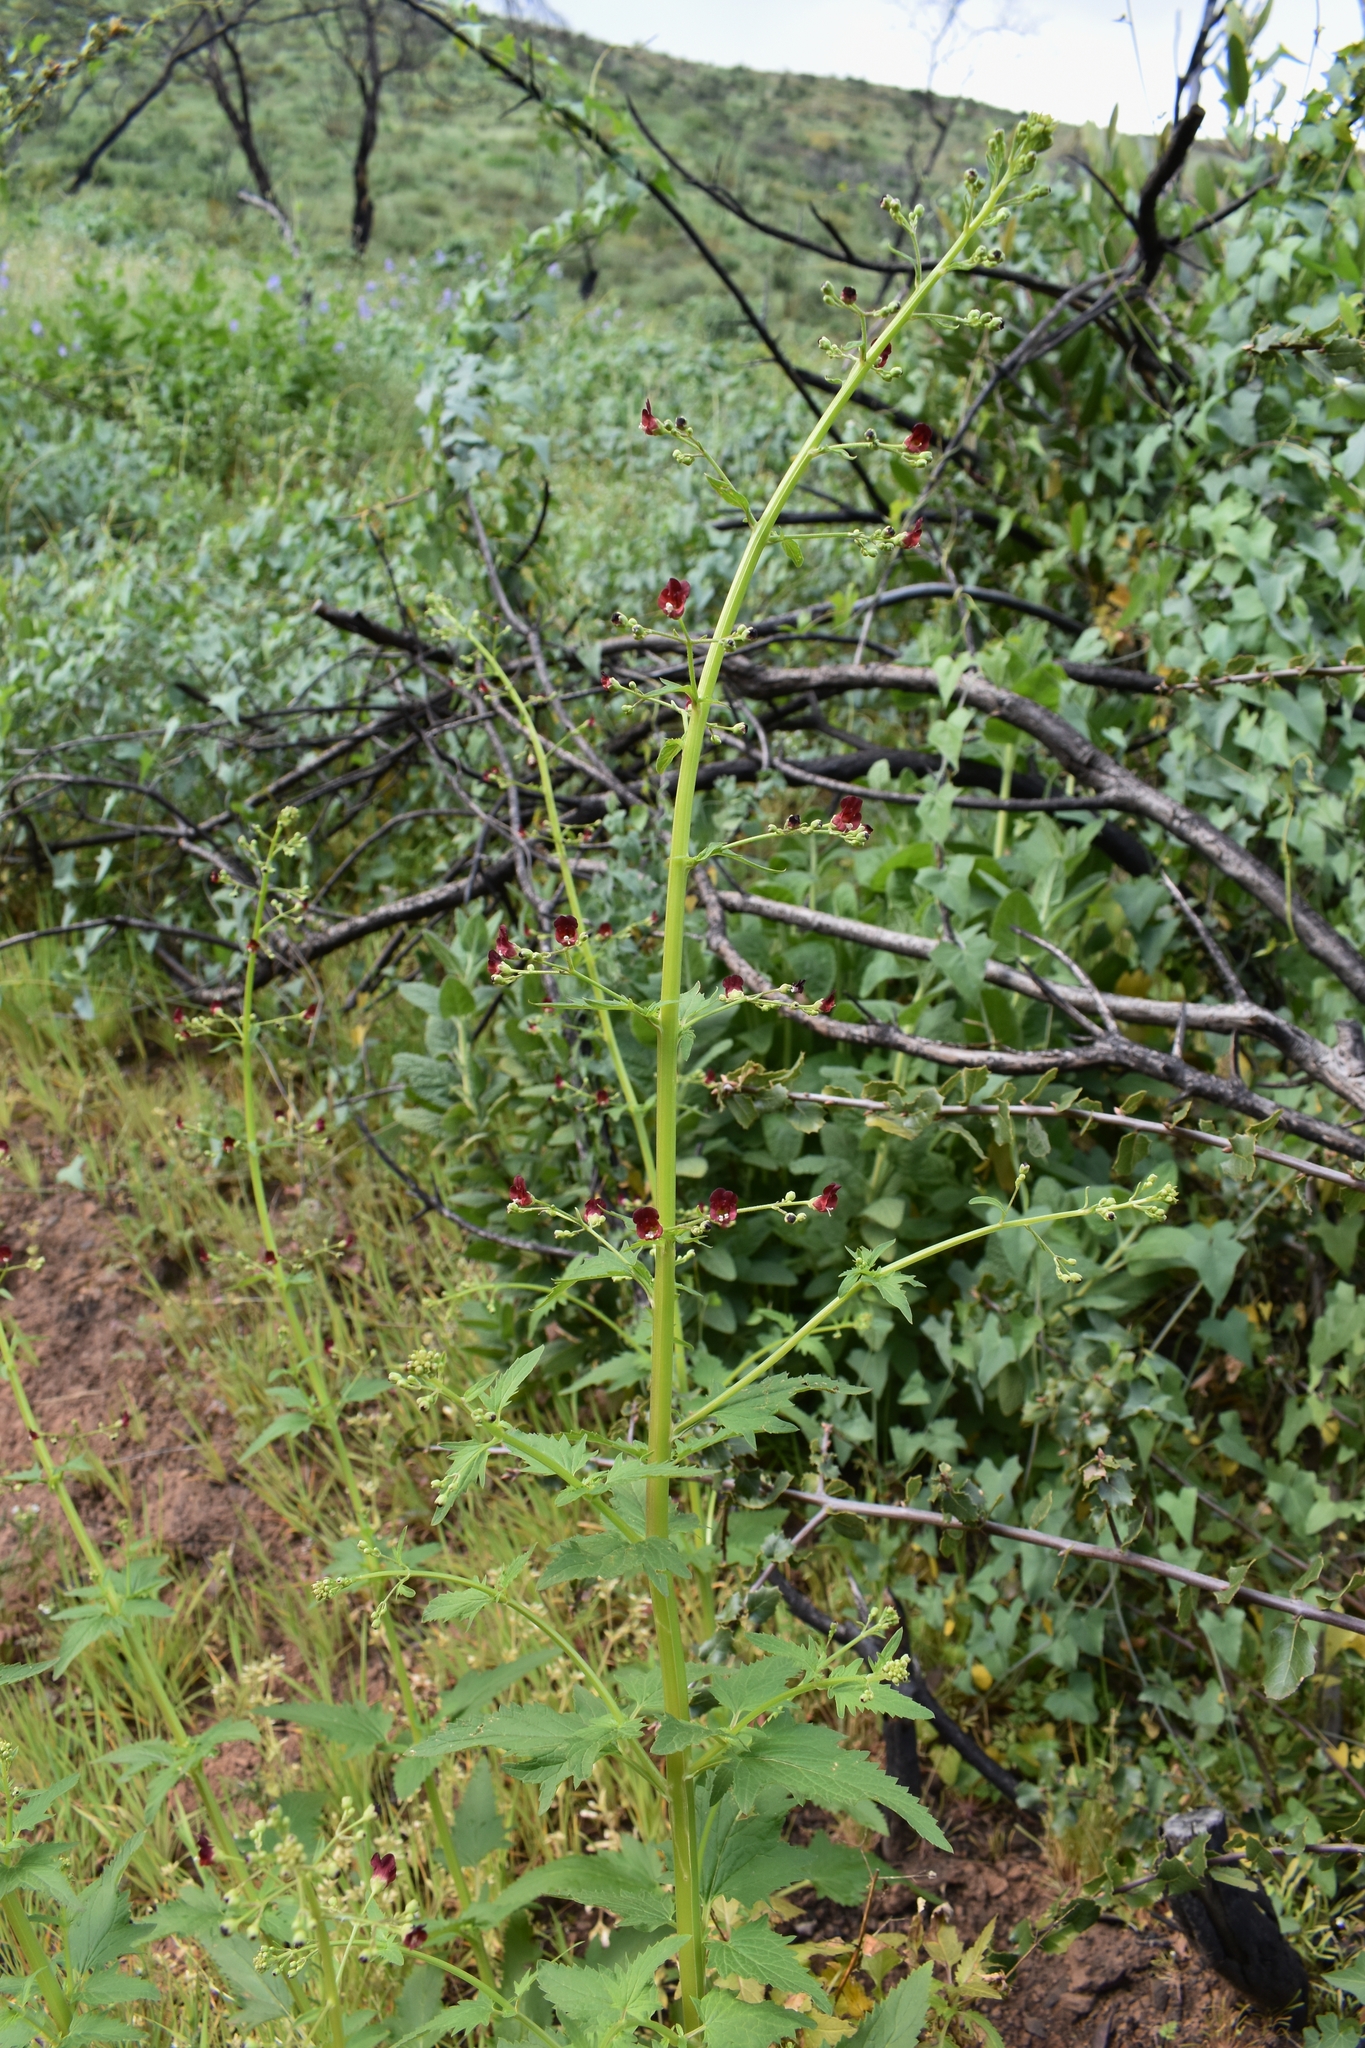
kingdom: Plantae
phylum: Tracheophyta
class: Magnoliopsida
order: Lamiales
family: Scrophulariaceae
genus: Scrophularia
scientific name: Scrophularia californica
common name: California figwort
